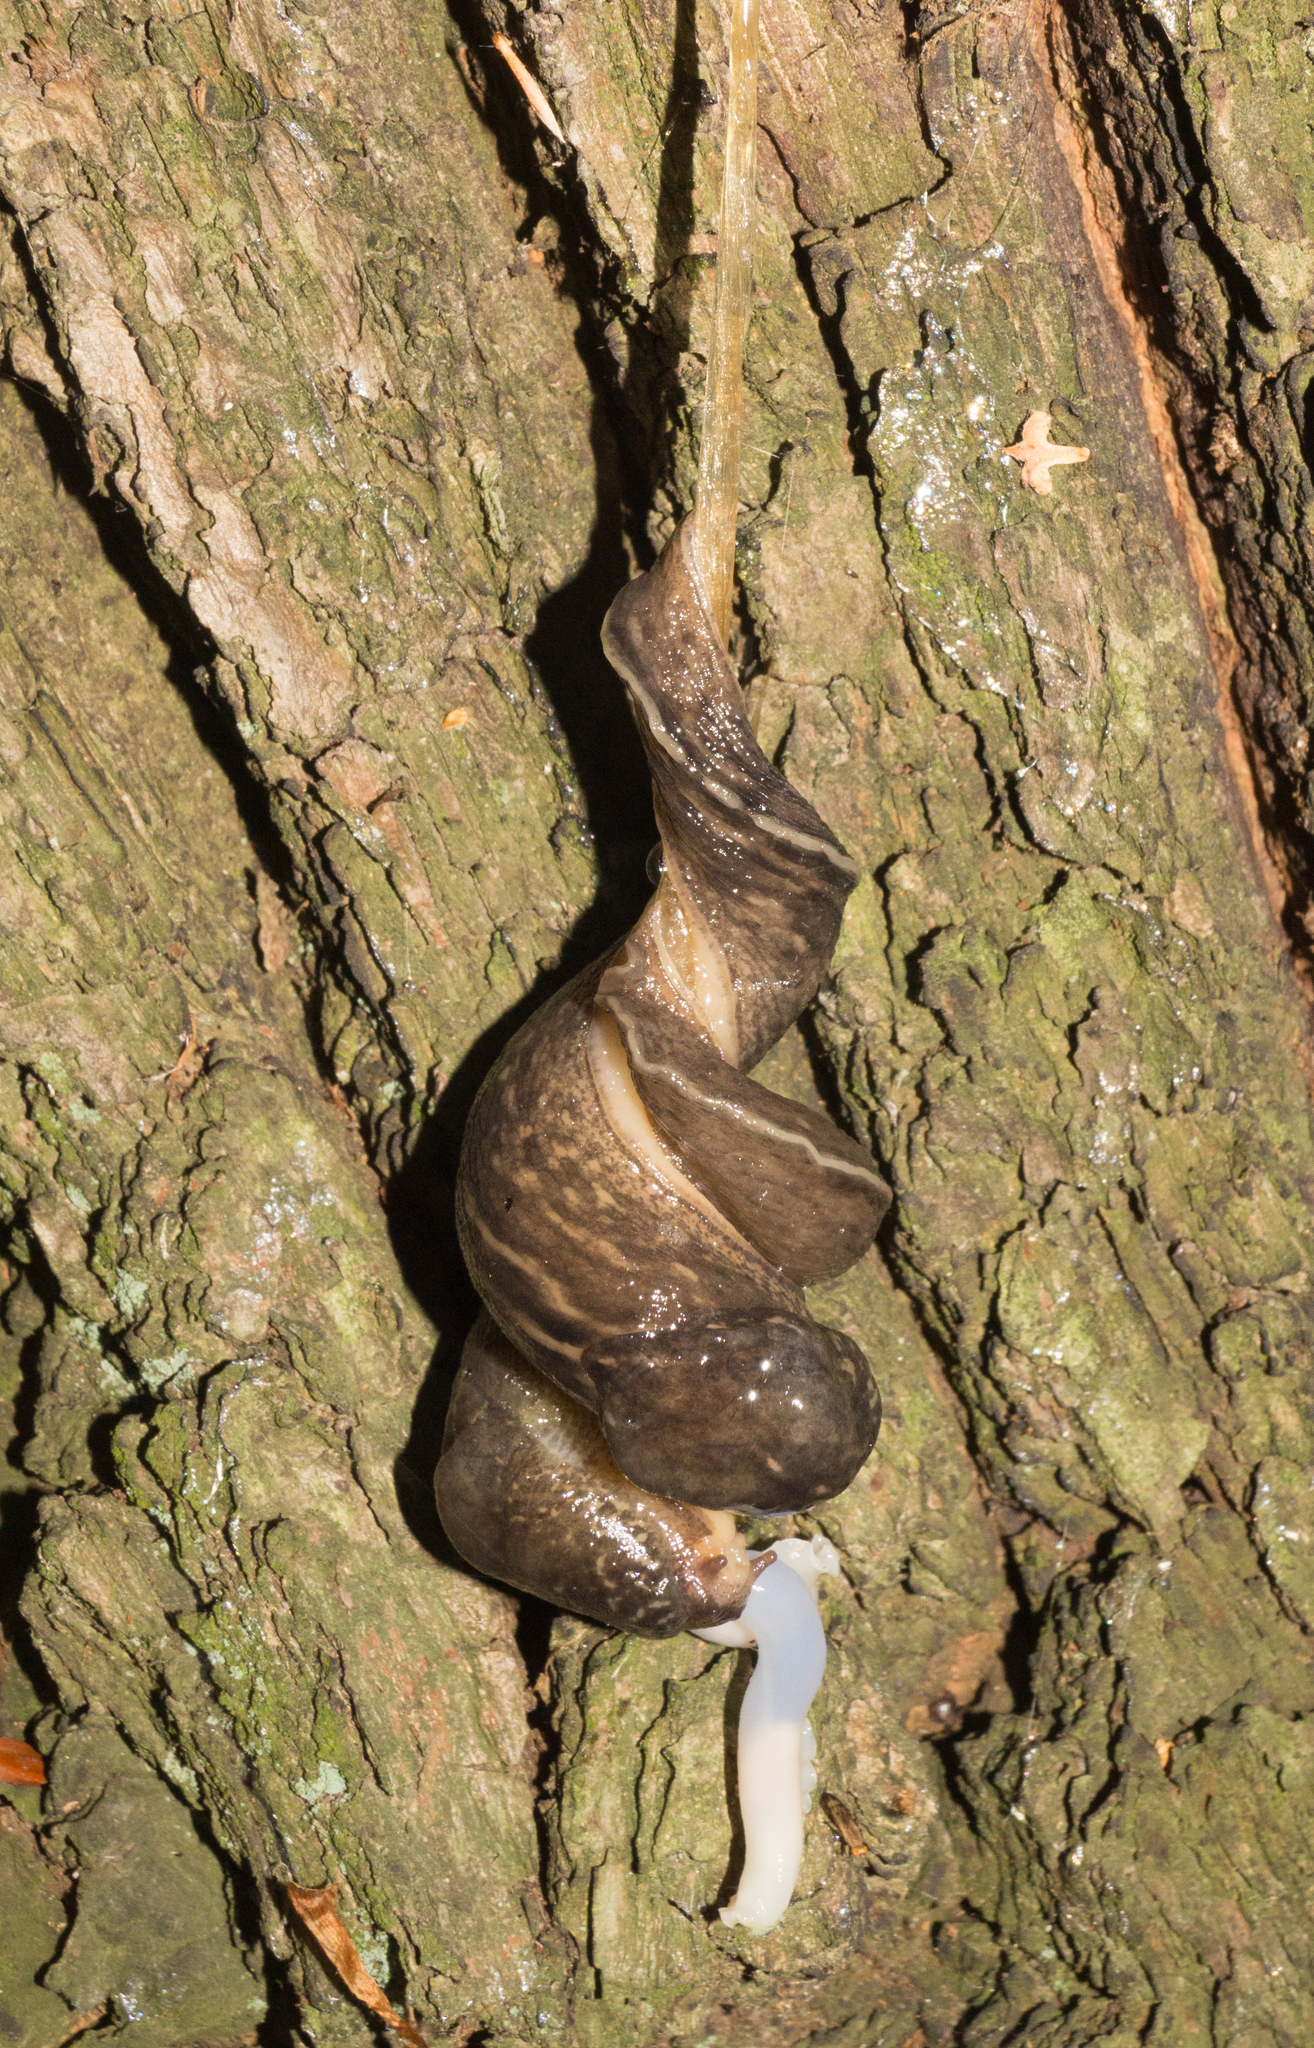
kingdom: Animalia
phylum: Mollusca
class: Gastropoda
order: Stylommatophora
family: Limacidae
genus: Limax
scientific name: Limax maximus
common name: Great grey slug
